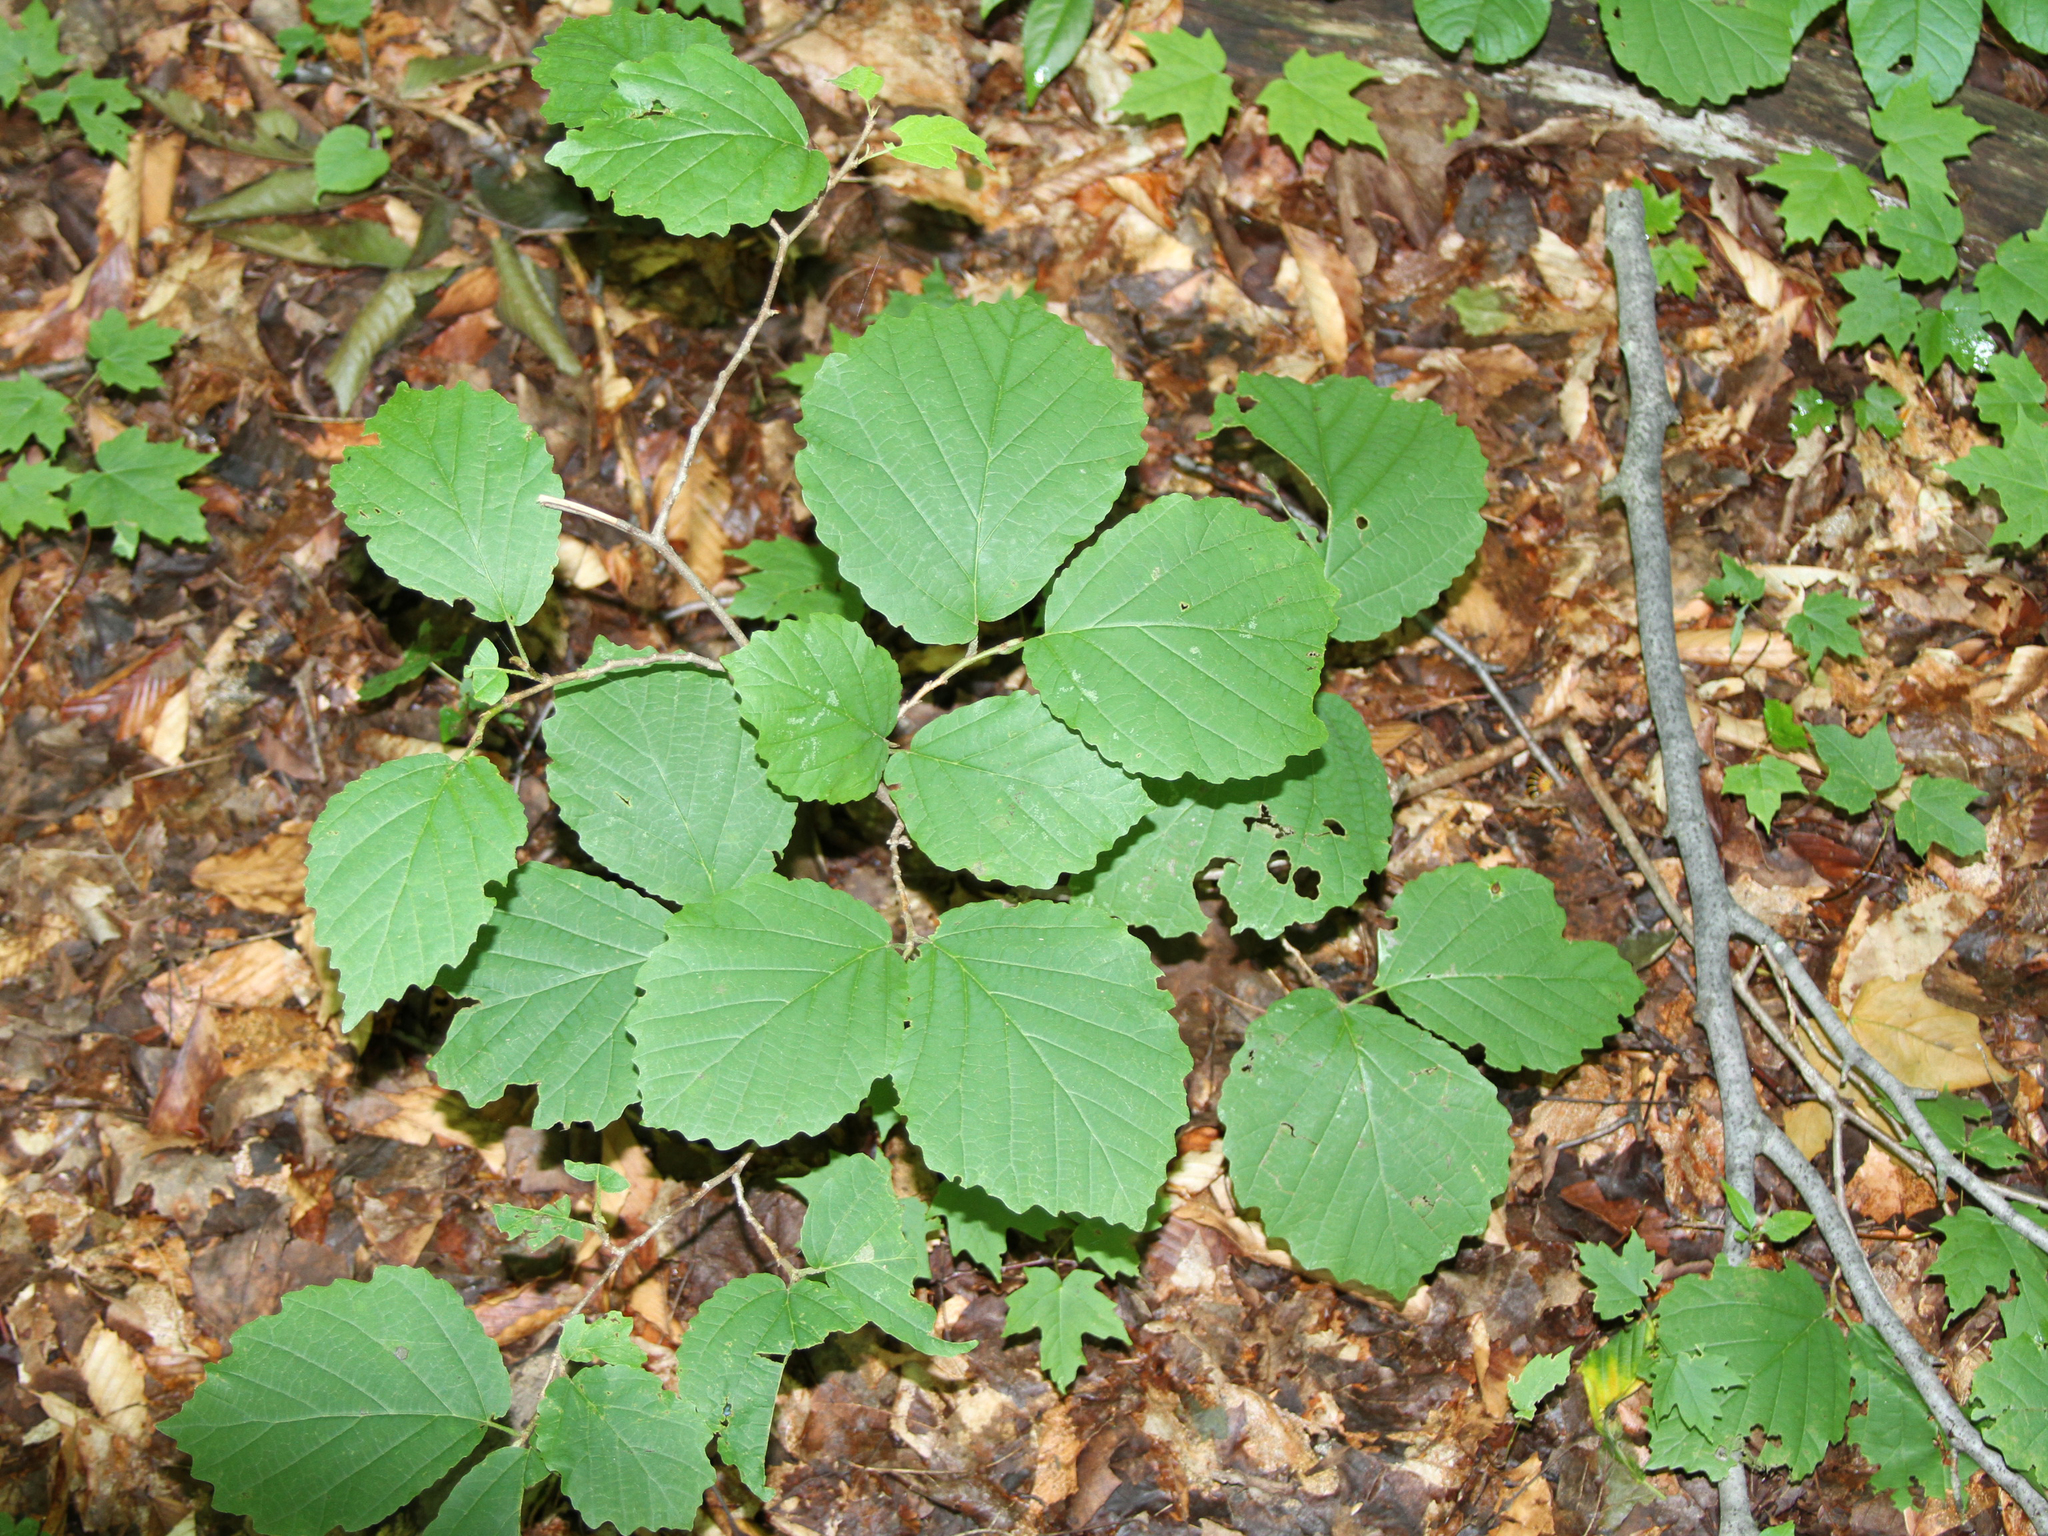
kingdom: Plantae
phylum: Tracheophyta
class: Magnoliopsida
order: Saxifragales
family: Hamamelidaceae
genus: Hamamelis
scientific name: Hamamelis virginiana
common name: Witch-hazel
